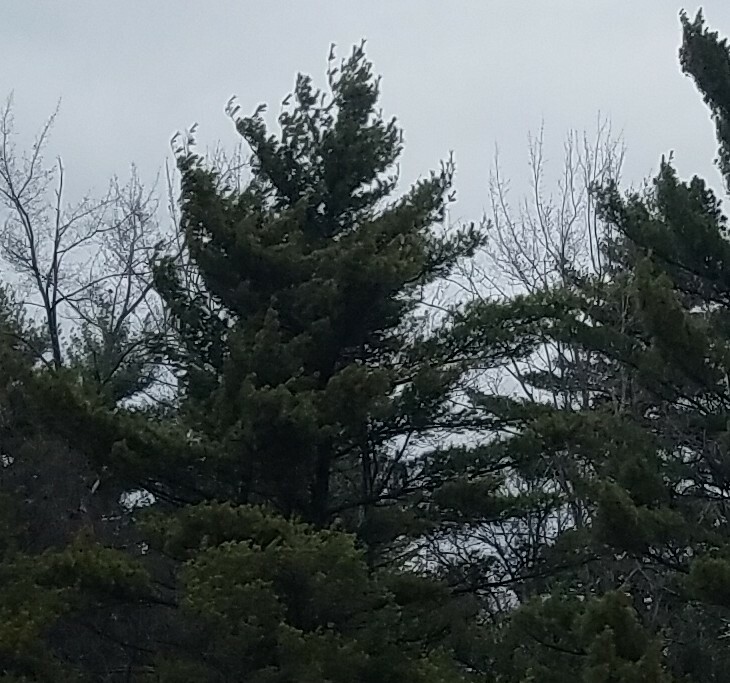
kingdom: Plantae
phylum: Tracheophyta
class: Pinopsida
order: Pinales
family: Pinaceae
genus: Pinus
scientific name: Pinus strobus
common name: Weymouth pine
